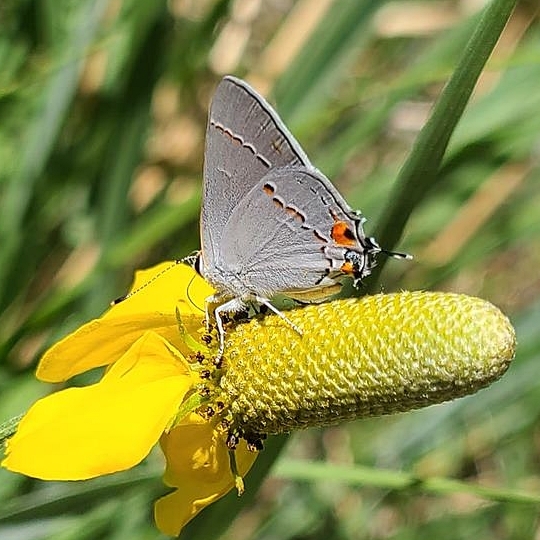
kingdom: Animalia
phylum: Arthropoda
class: Insecta
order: Lepidoptera
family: Lycaenidae
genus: Strymon
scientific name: Strymon melinus
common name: Gray hairstreak
